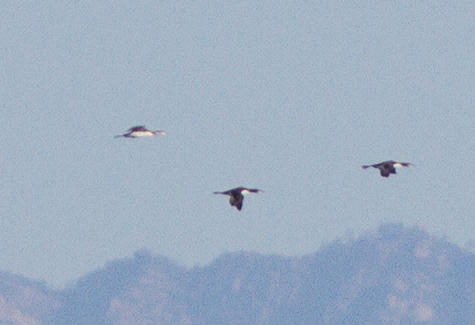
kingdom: Animalia
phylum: Chordata
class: Aves
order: Gaviiformes
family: Gaviidae
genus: Gavia
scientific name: Gavia stellata
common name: Red-throated loon
